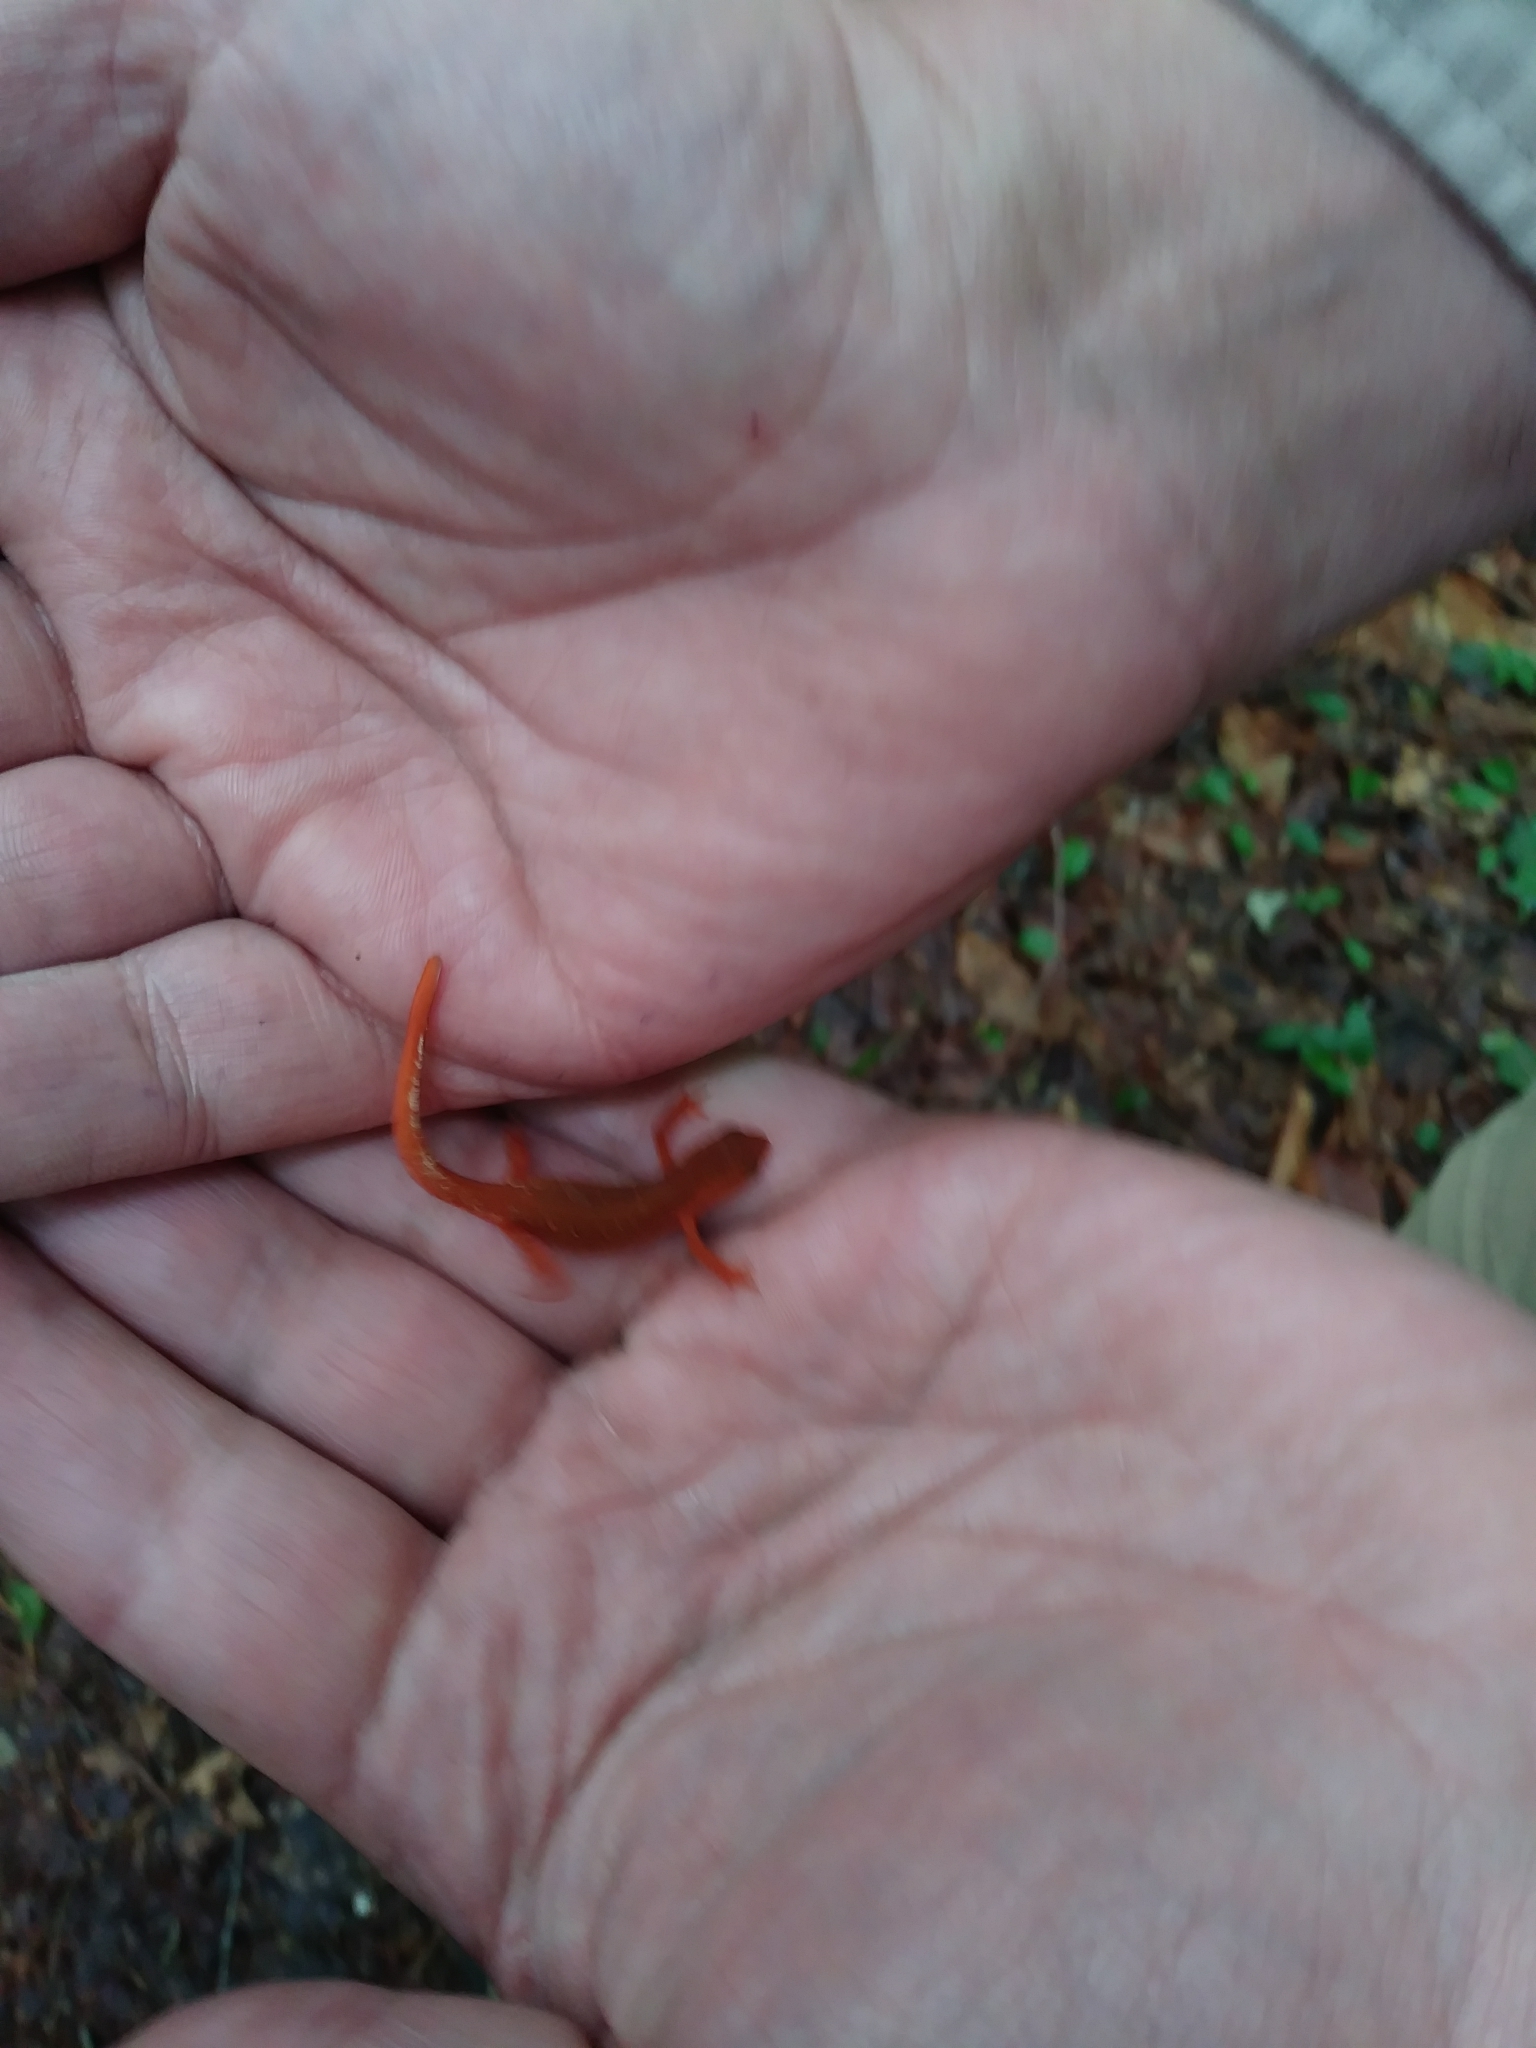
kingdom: Animalia
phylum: Chordata
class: Amphibia
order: Caudata
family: Salamandridae
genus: Notophthalmus
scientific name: Notophthalmus viridescens
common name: Eastern newt
